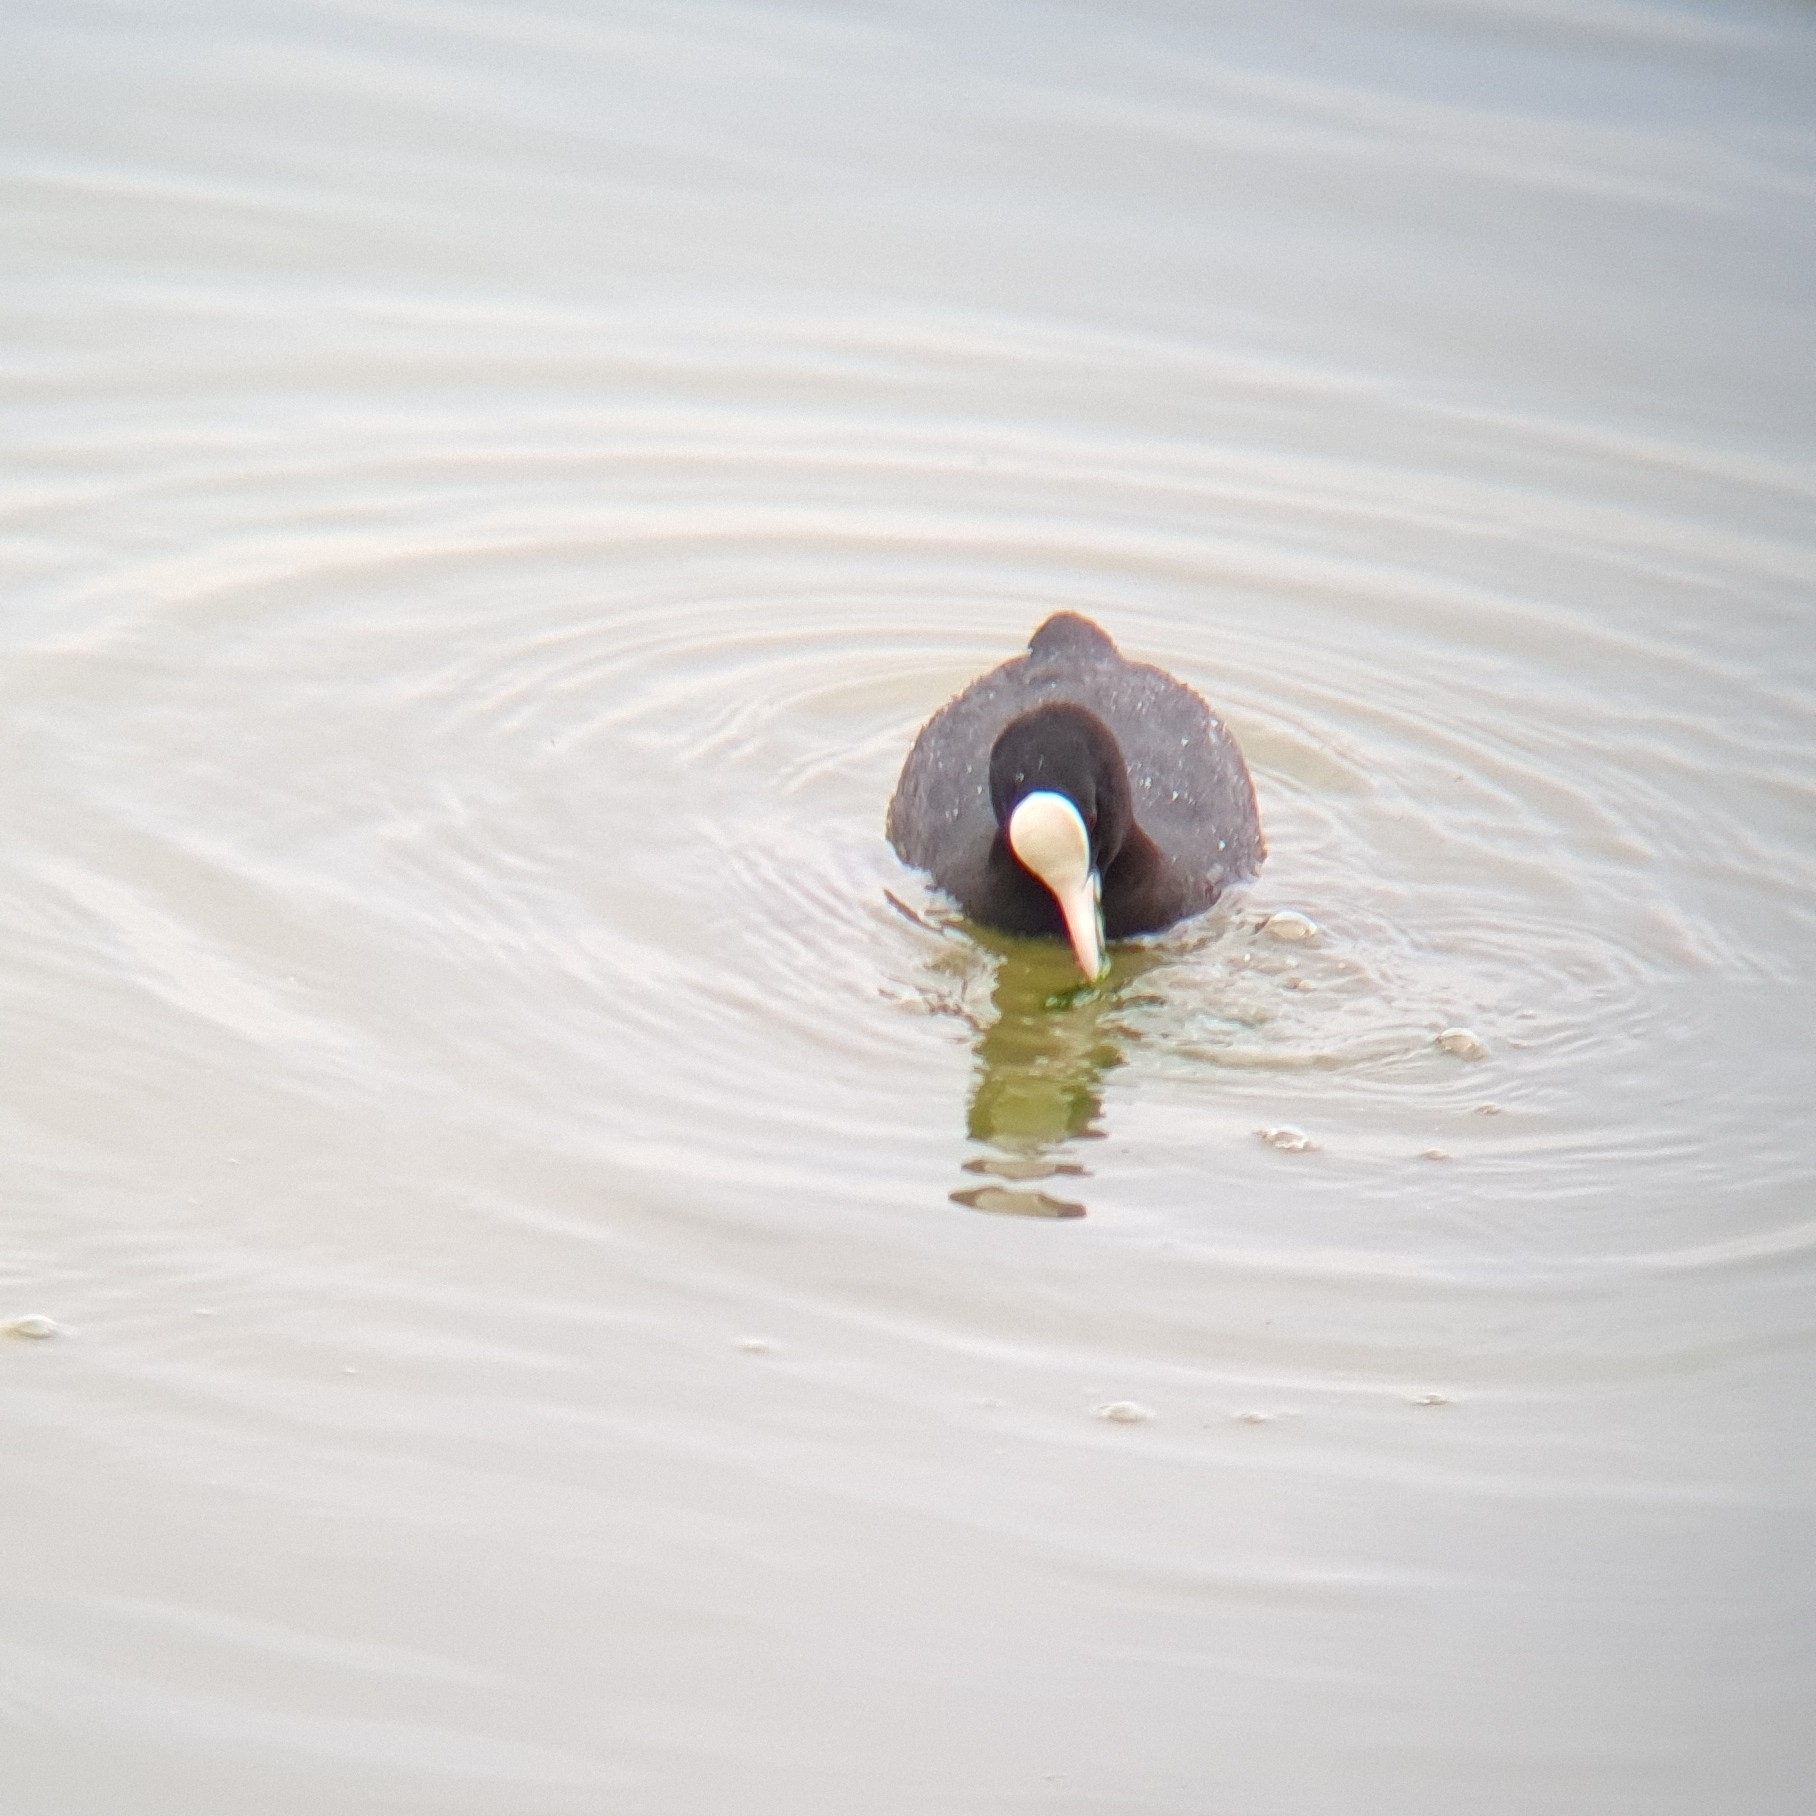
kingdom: Animalia
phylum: Chordata
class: Aves
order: Gruiformes
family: Rallidae
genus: Fulica
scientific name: Fulica atra
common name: Eurasian coot
